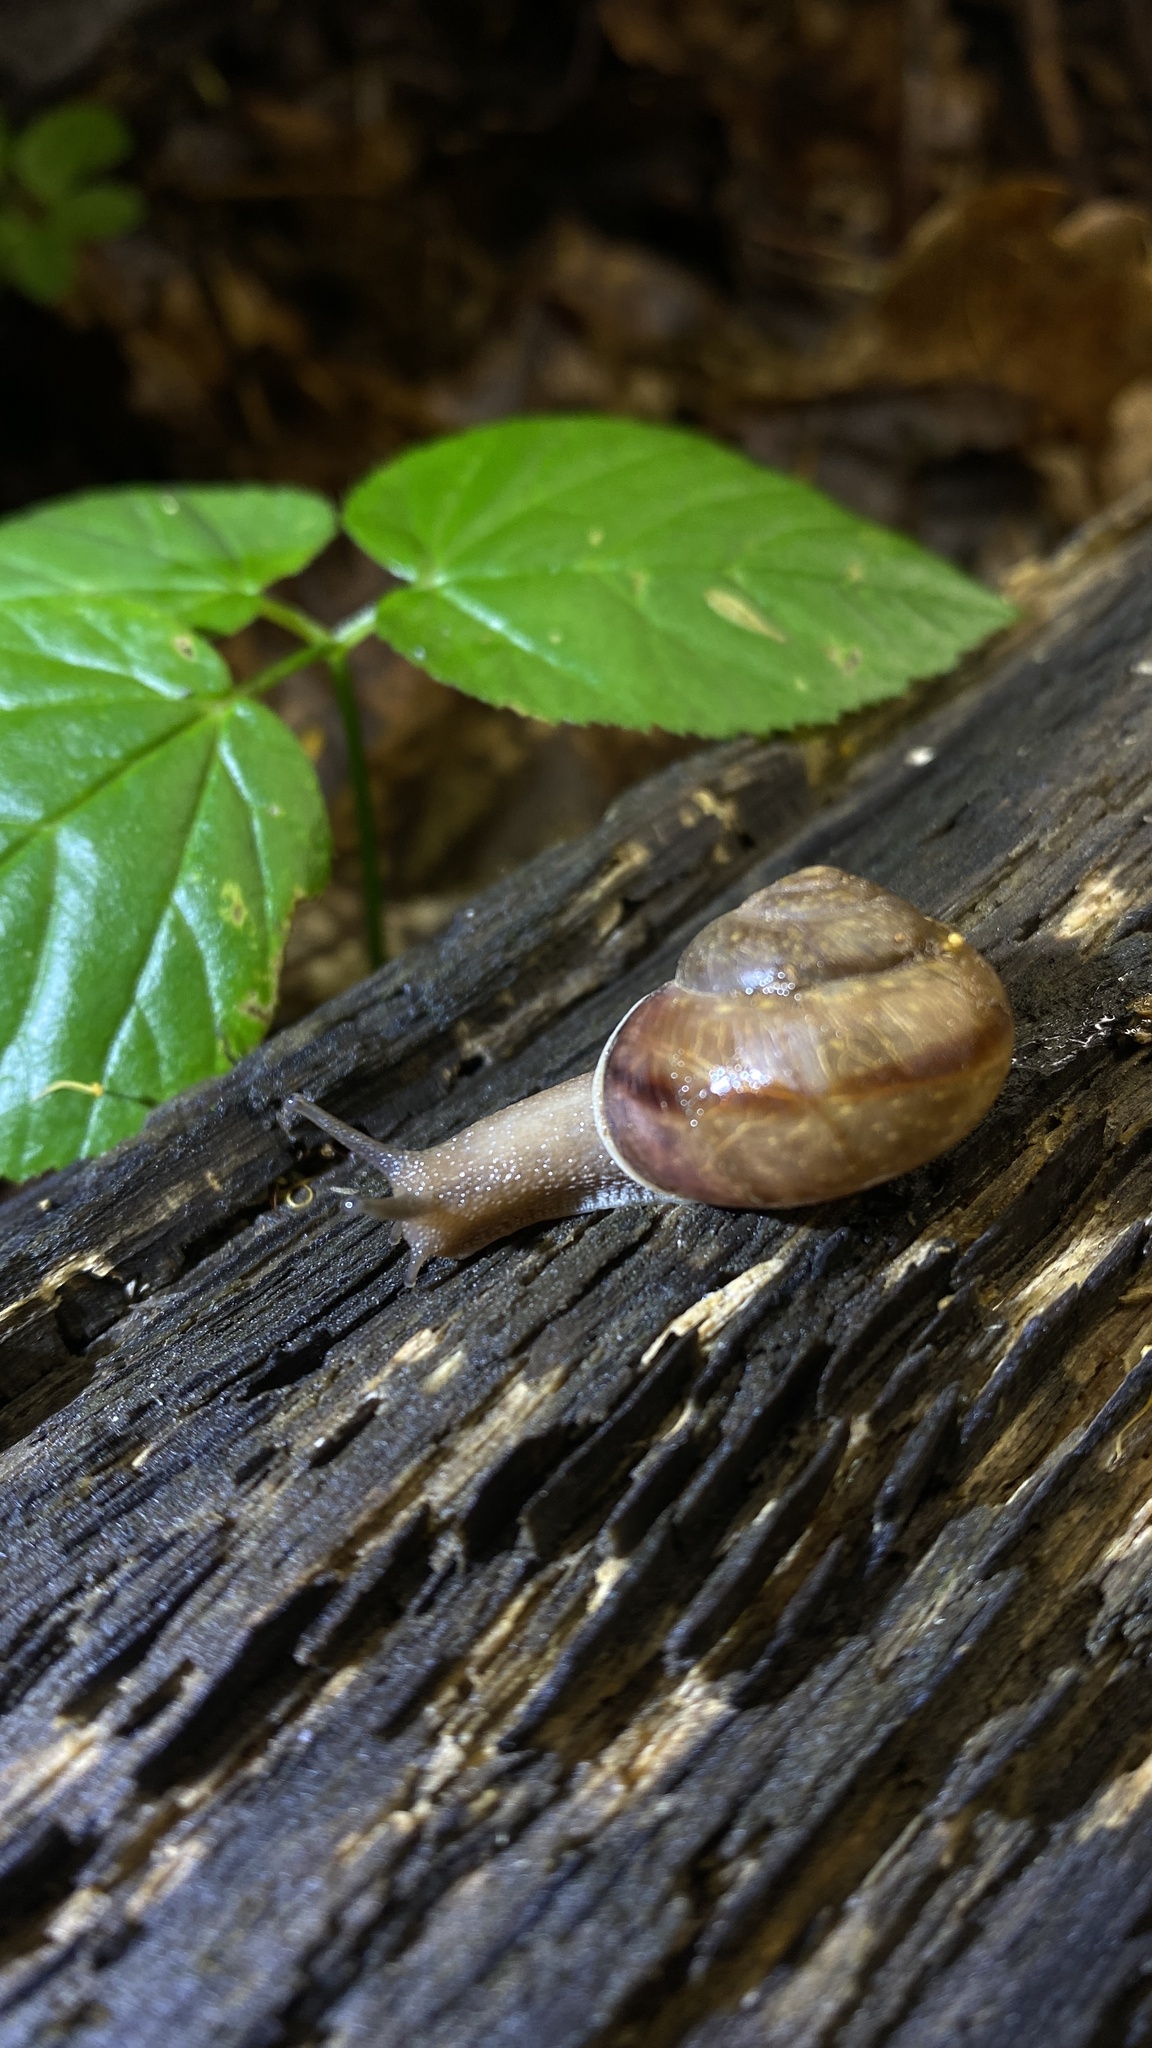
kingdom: Animalia
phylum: Mollusca
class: Gastropoda
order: Stylommatophora
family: Camaenidae
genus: Fruticicola
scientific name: Fruticicola fruticum
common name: Bush snail
